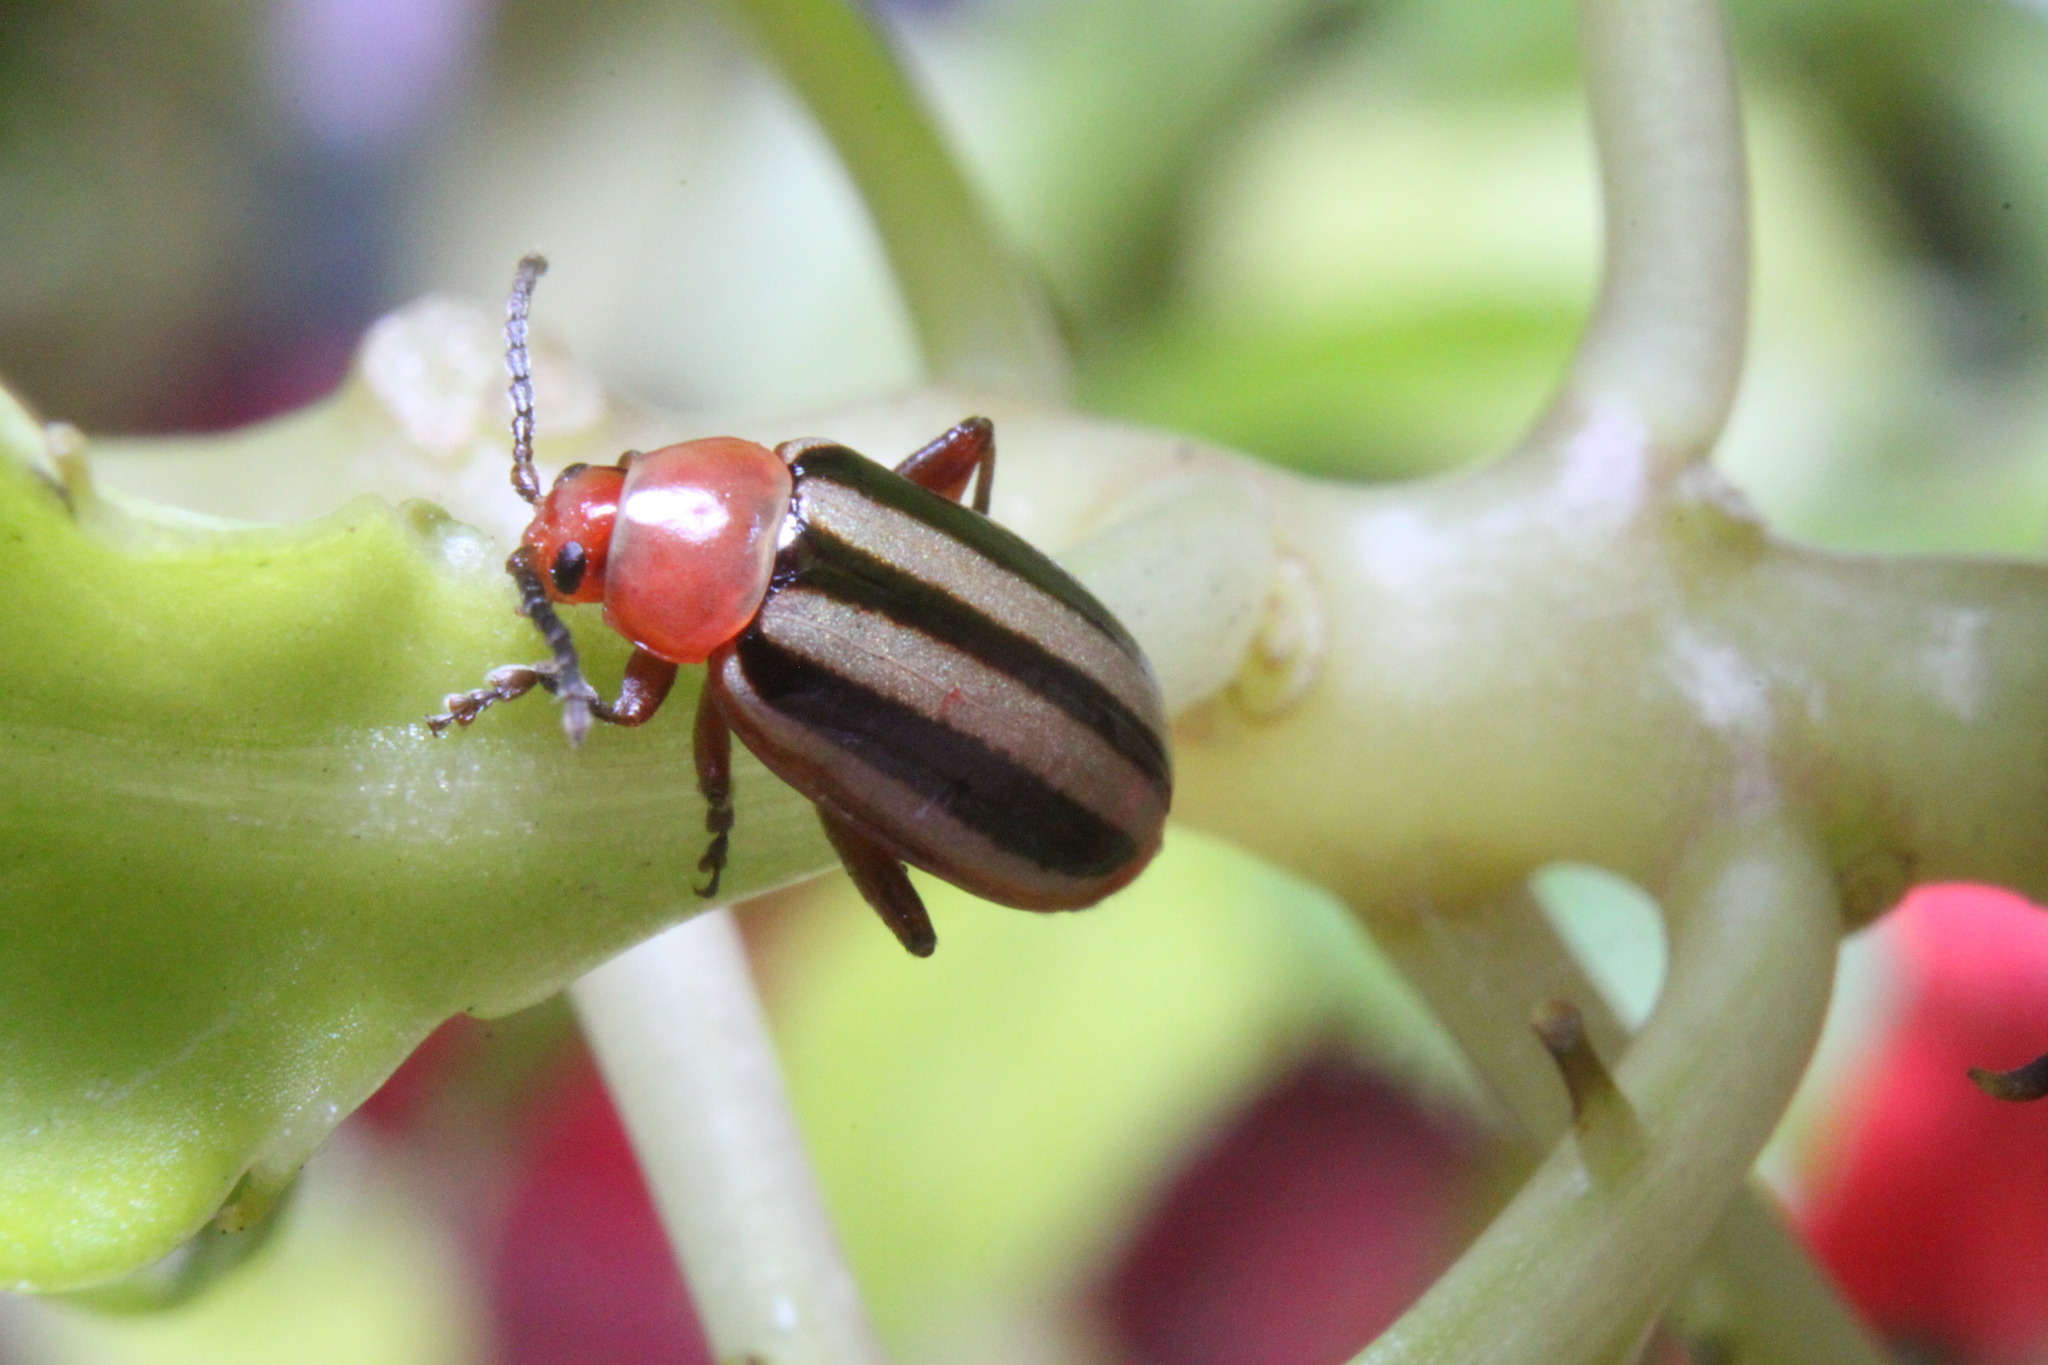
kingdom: Animalia
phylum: Arthropoda
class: Insecta
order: Coleoptera
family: Chrysomelidae
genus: Disonycha
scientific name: Disonycha leptolineata
